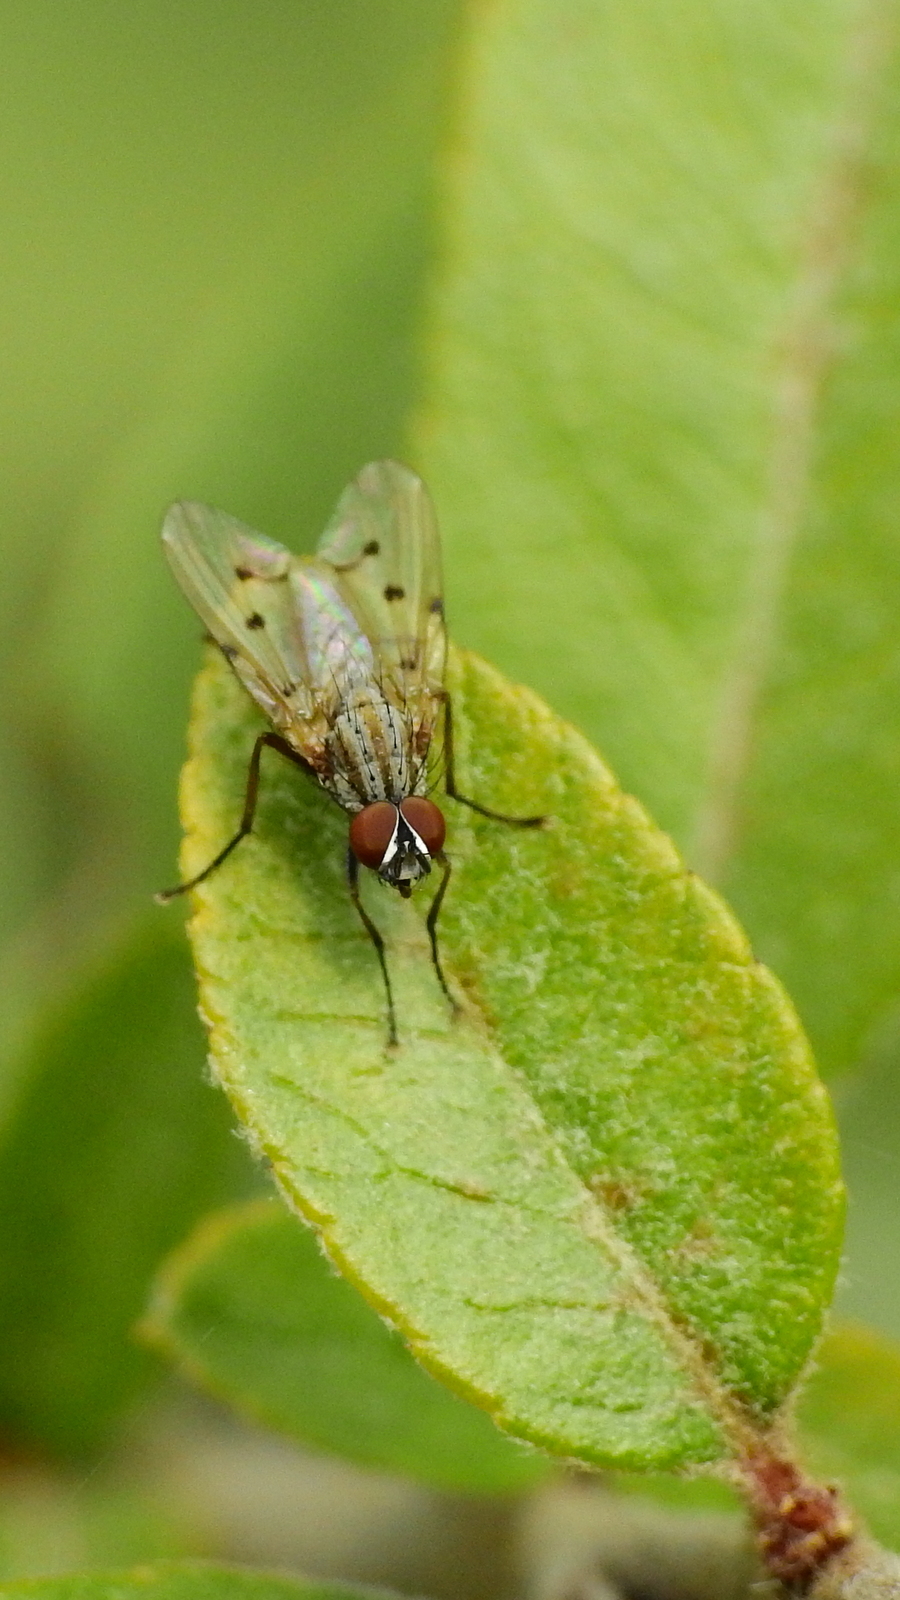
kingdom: Animalia
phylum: Arthropoda
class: Insecta
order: Diptera
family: Anthomyiidae
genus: Anthomyia
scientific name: Anthomyia punctipennis
